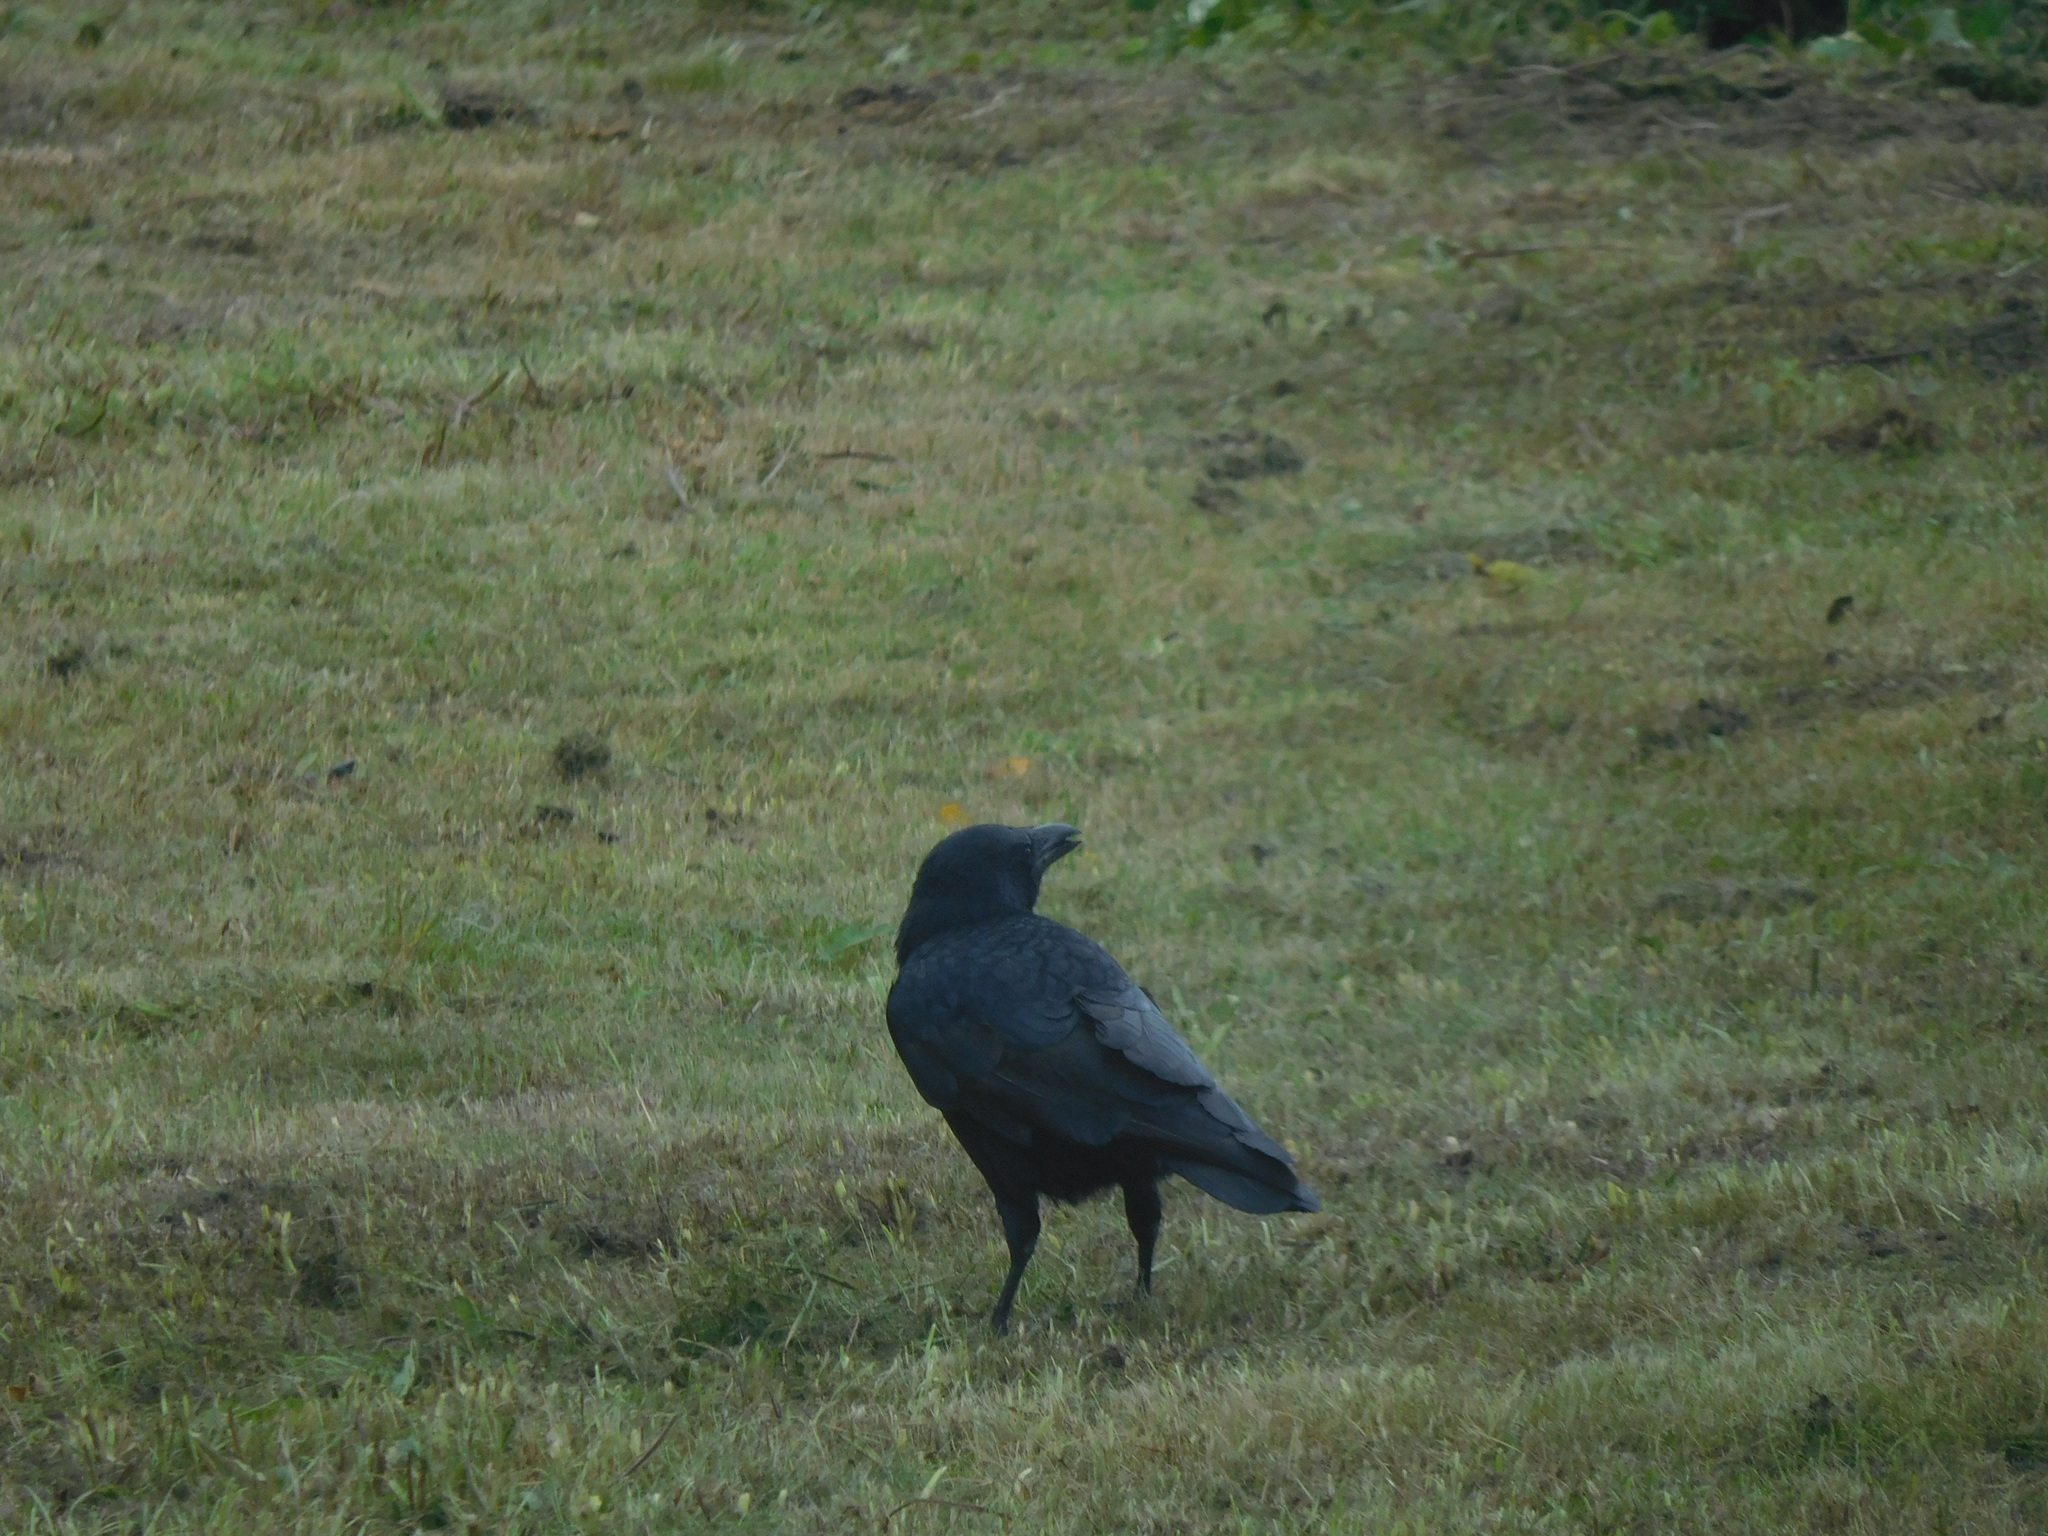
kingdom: Animalia
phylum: Chordata
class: Aves
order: Passeriformes
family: Corvidae
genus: Corvus
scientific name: Corvus corone
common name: Carrion crow
